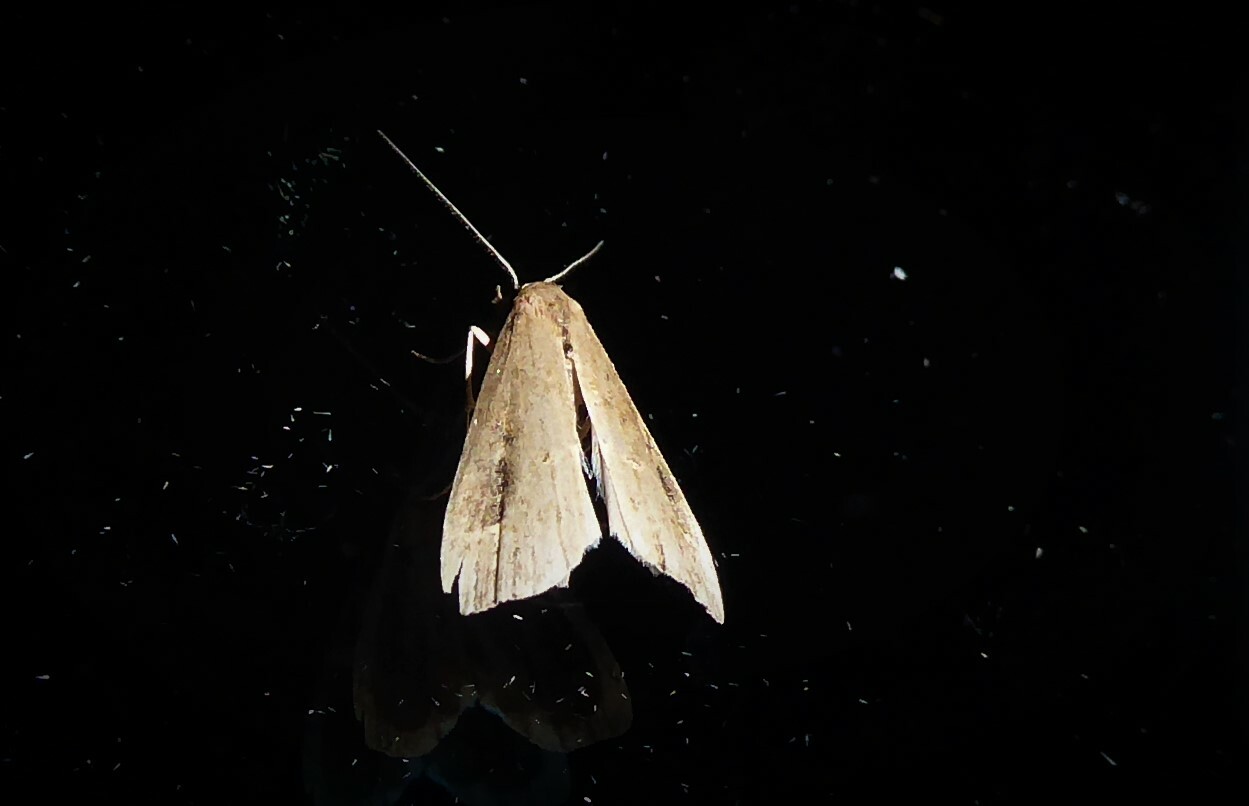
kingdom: Animalia
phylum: Arthropoda
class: Insecta
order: Lepidoptera
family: Erebidae
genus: Schrankia
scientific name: Schrankia costaestrigalis
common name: Pinion-streaked snout
